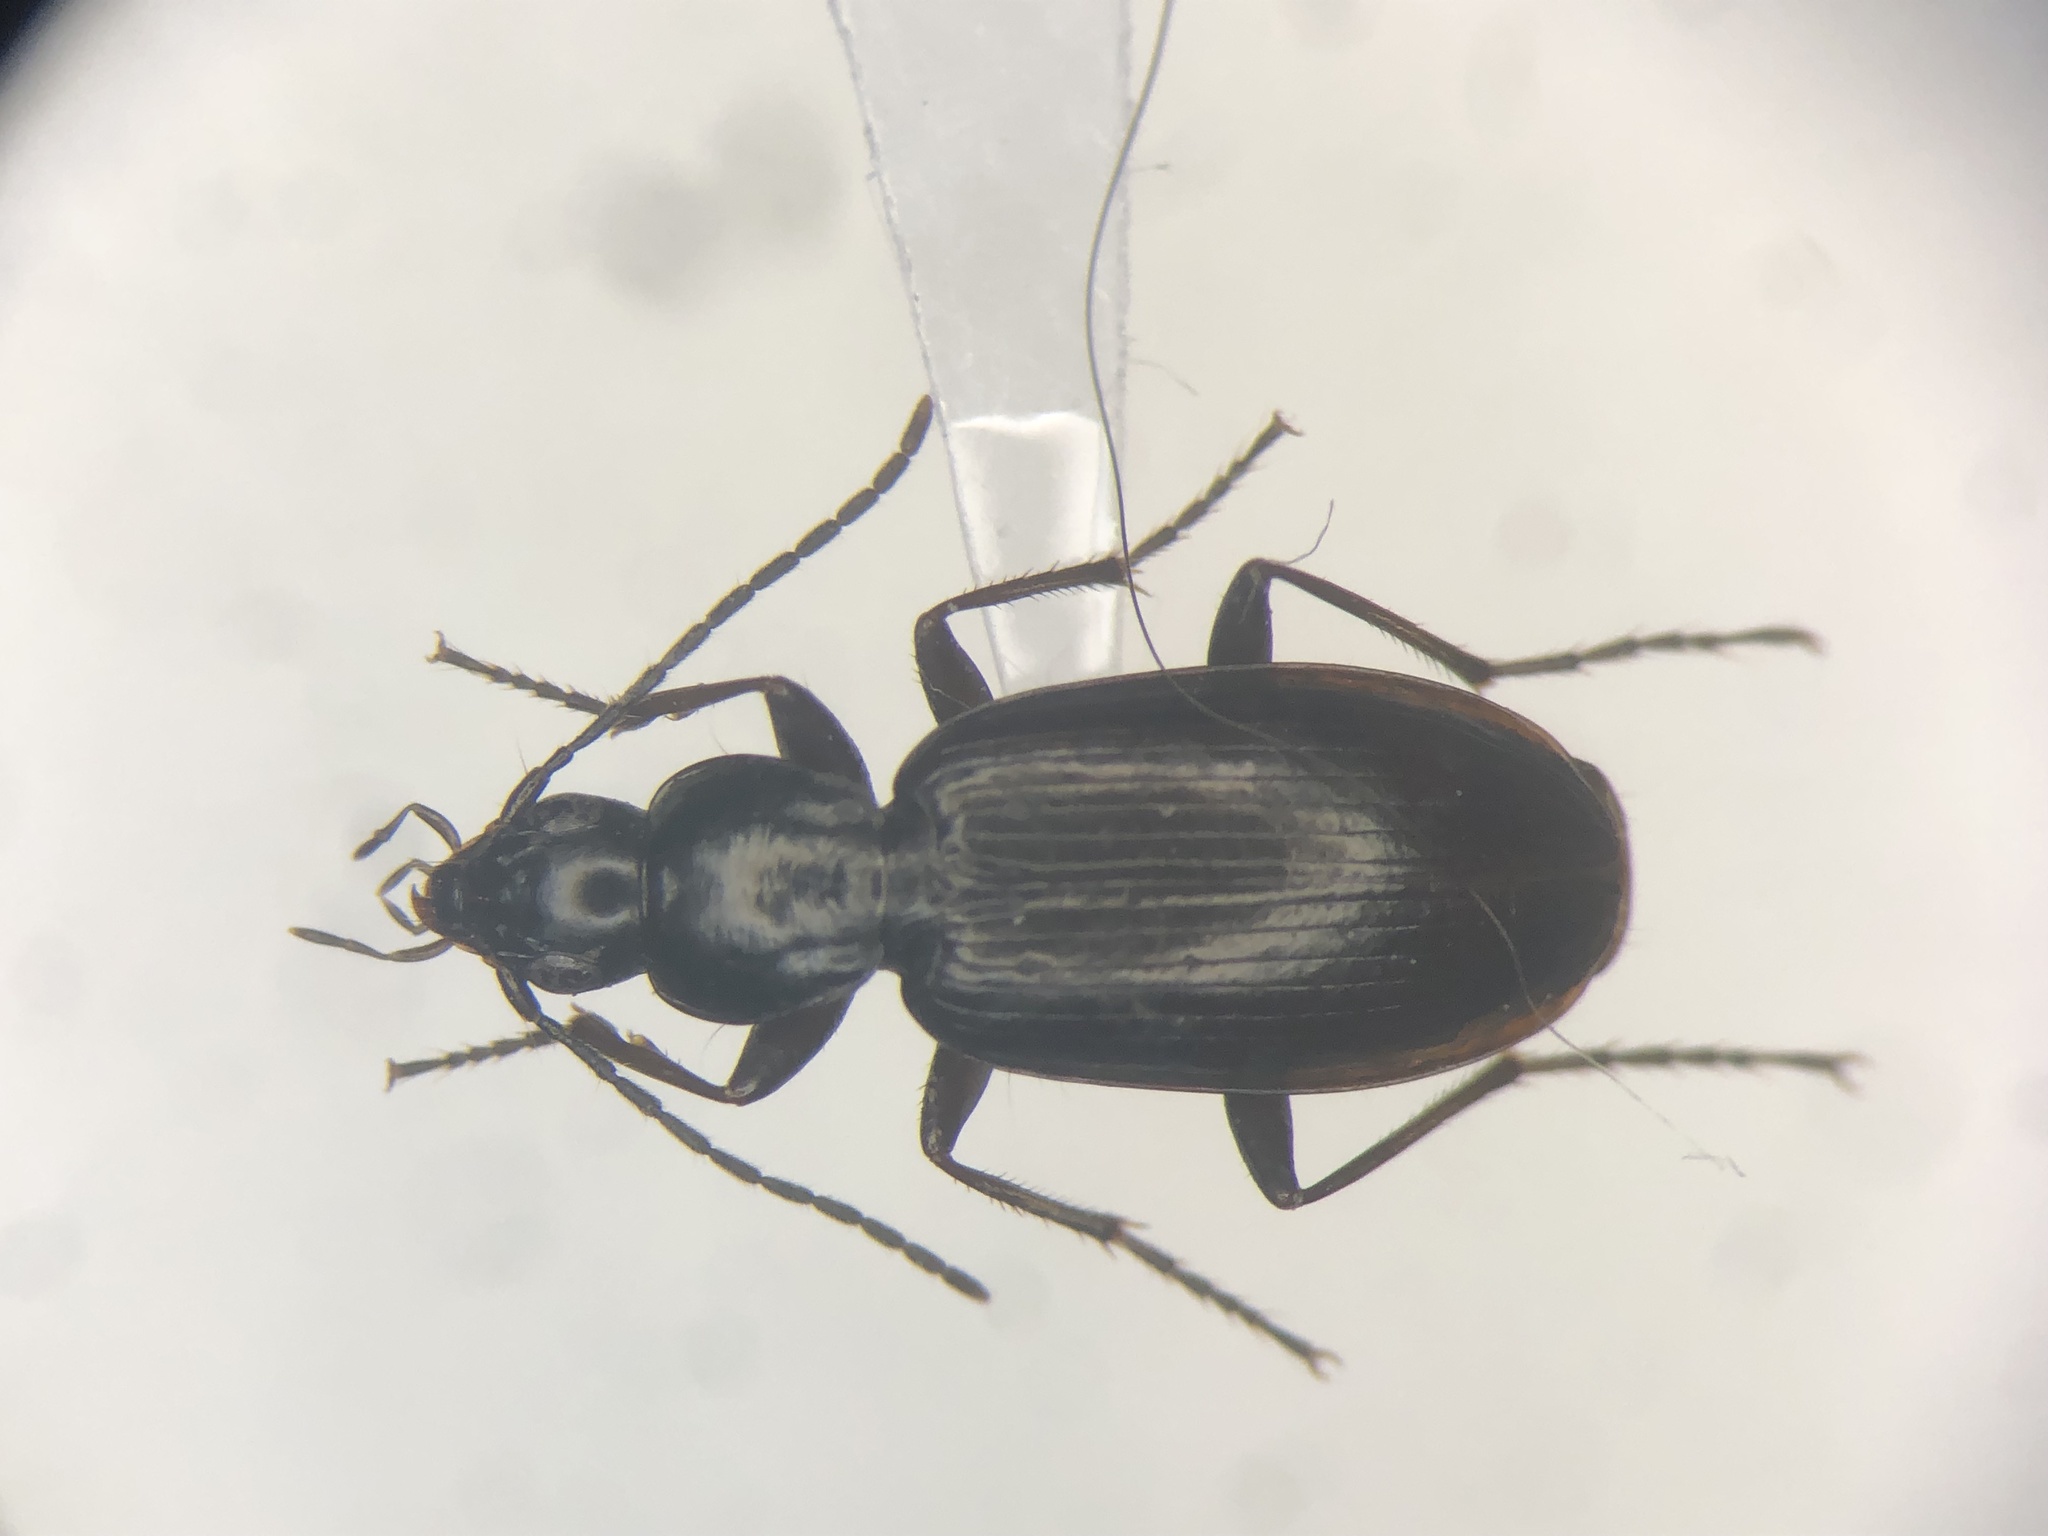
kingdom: Animalia
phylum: Arthropoda
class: Insecta
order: Coleoptera
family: Carabidae
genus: Agonum
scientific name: Agonum thoreyi
